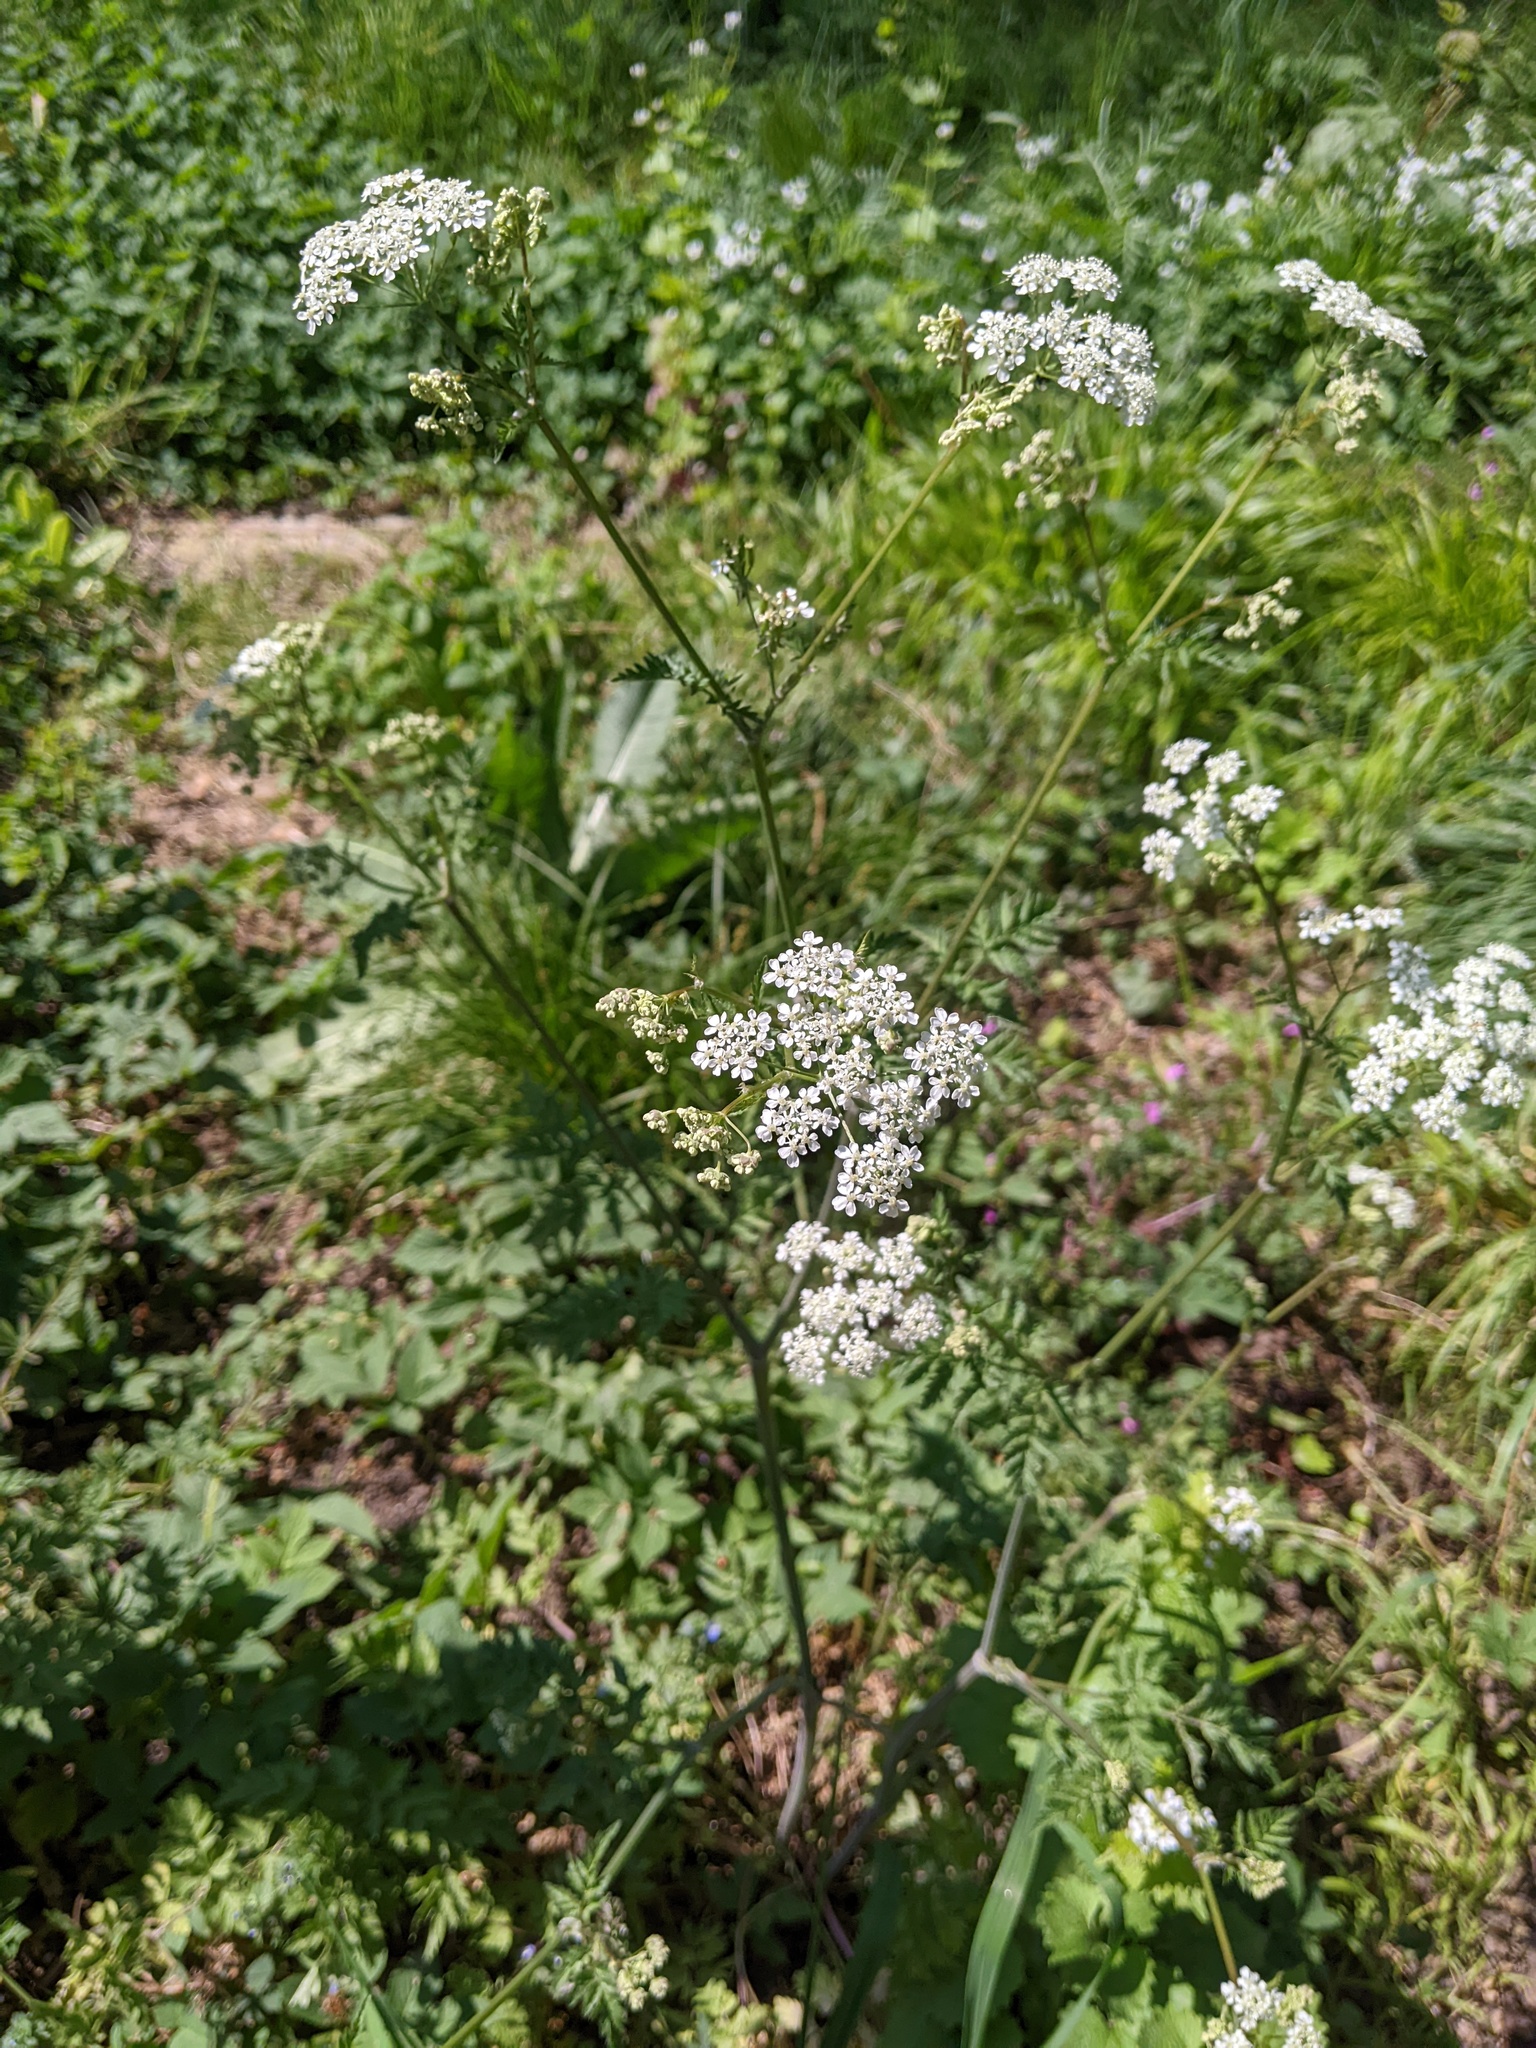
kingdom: Plantae
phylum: Tracheophyta
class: Magnoliopsida
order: Apiales
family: Apiaceae
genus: Anthriscus
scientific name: Anthriscus sylvestris
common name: Cow parsley
